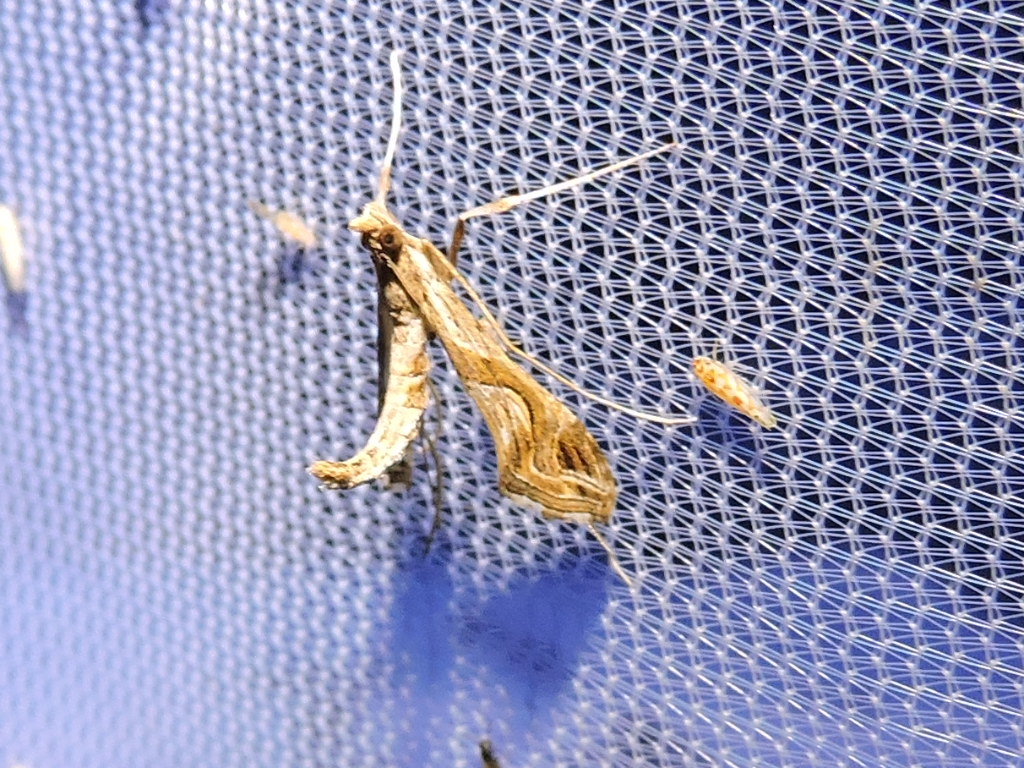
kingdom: Animalia
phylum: Arthropoda
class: Insecta
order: Lepidoptera
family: Crambidae
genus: Lineodes
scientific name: Lineodes integra
